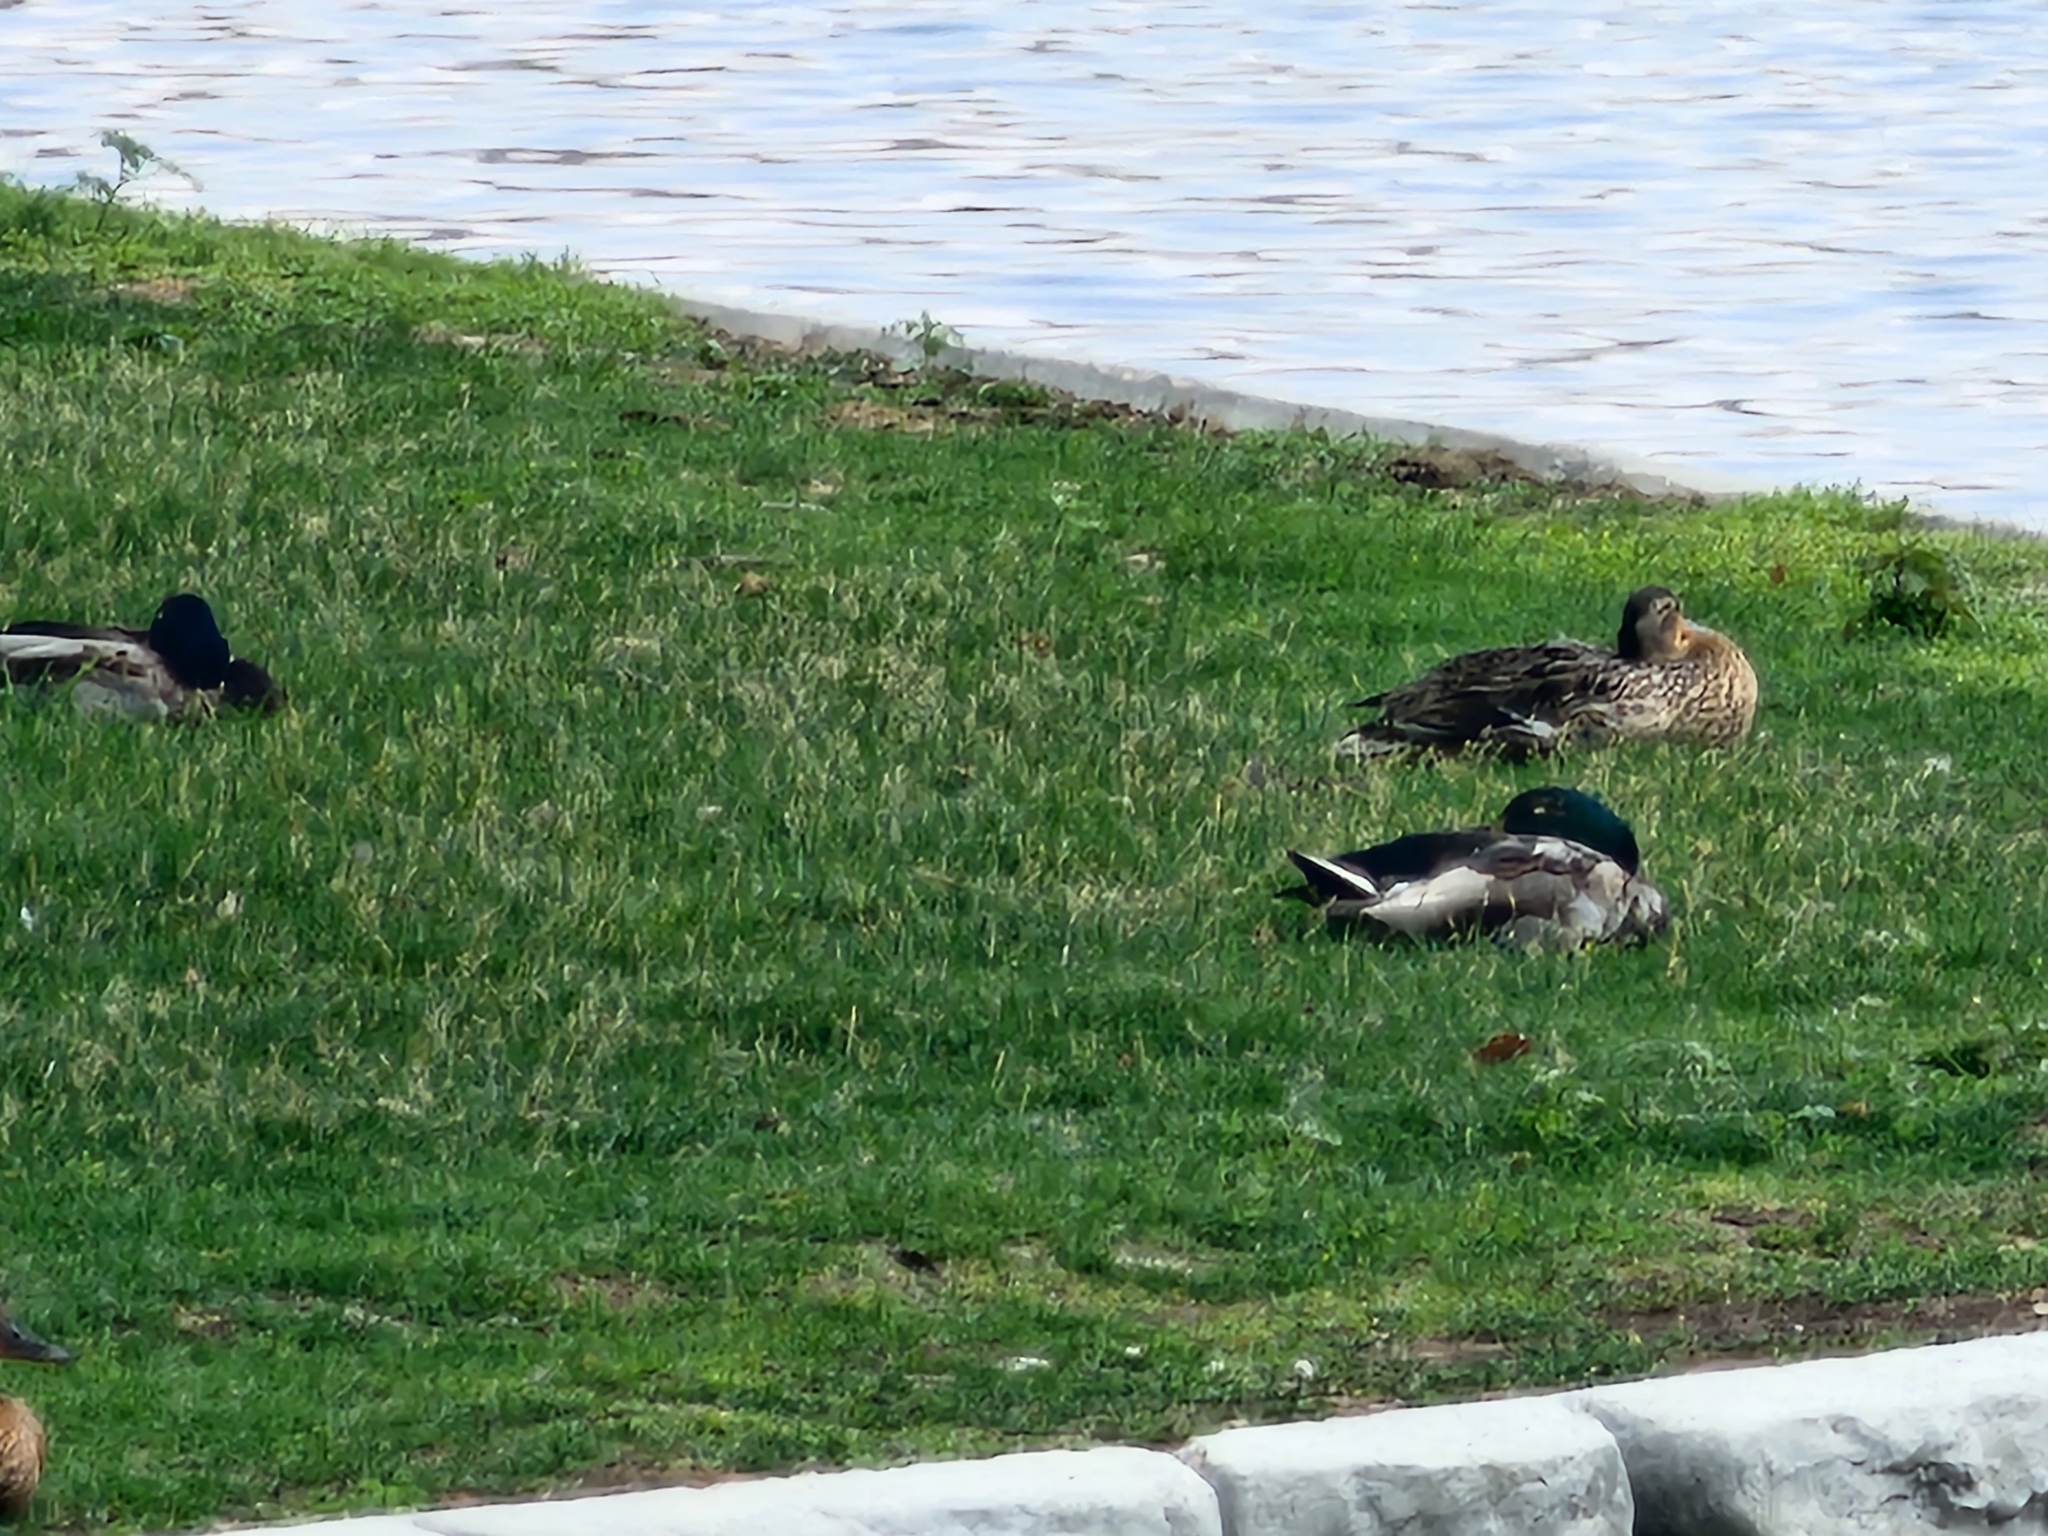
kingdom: Animalia
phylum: Chordata
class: Aves
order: Anseriformes
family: Anatidae
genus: Anas
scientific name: Anas platyrhynchos
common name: Mallard
